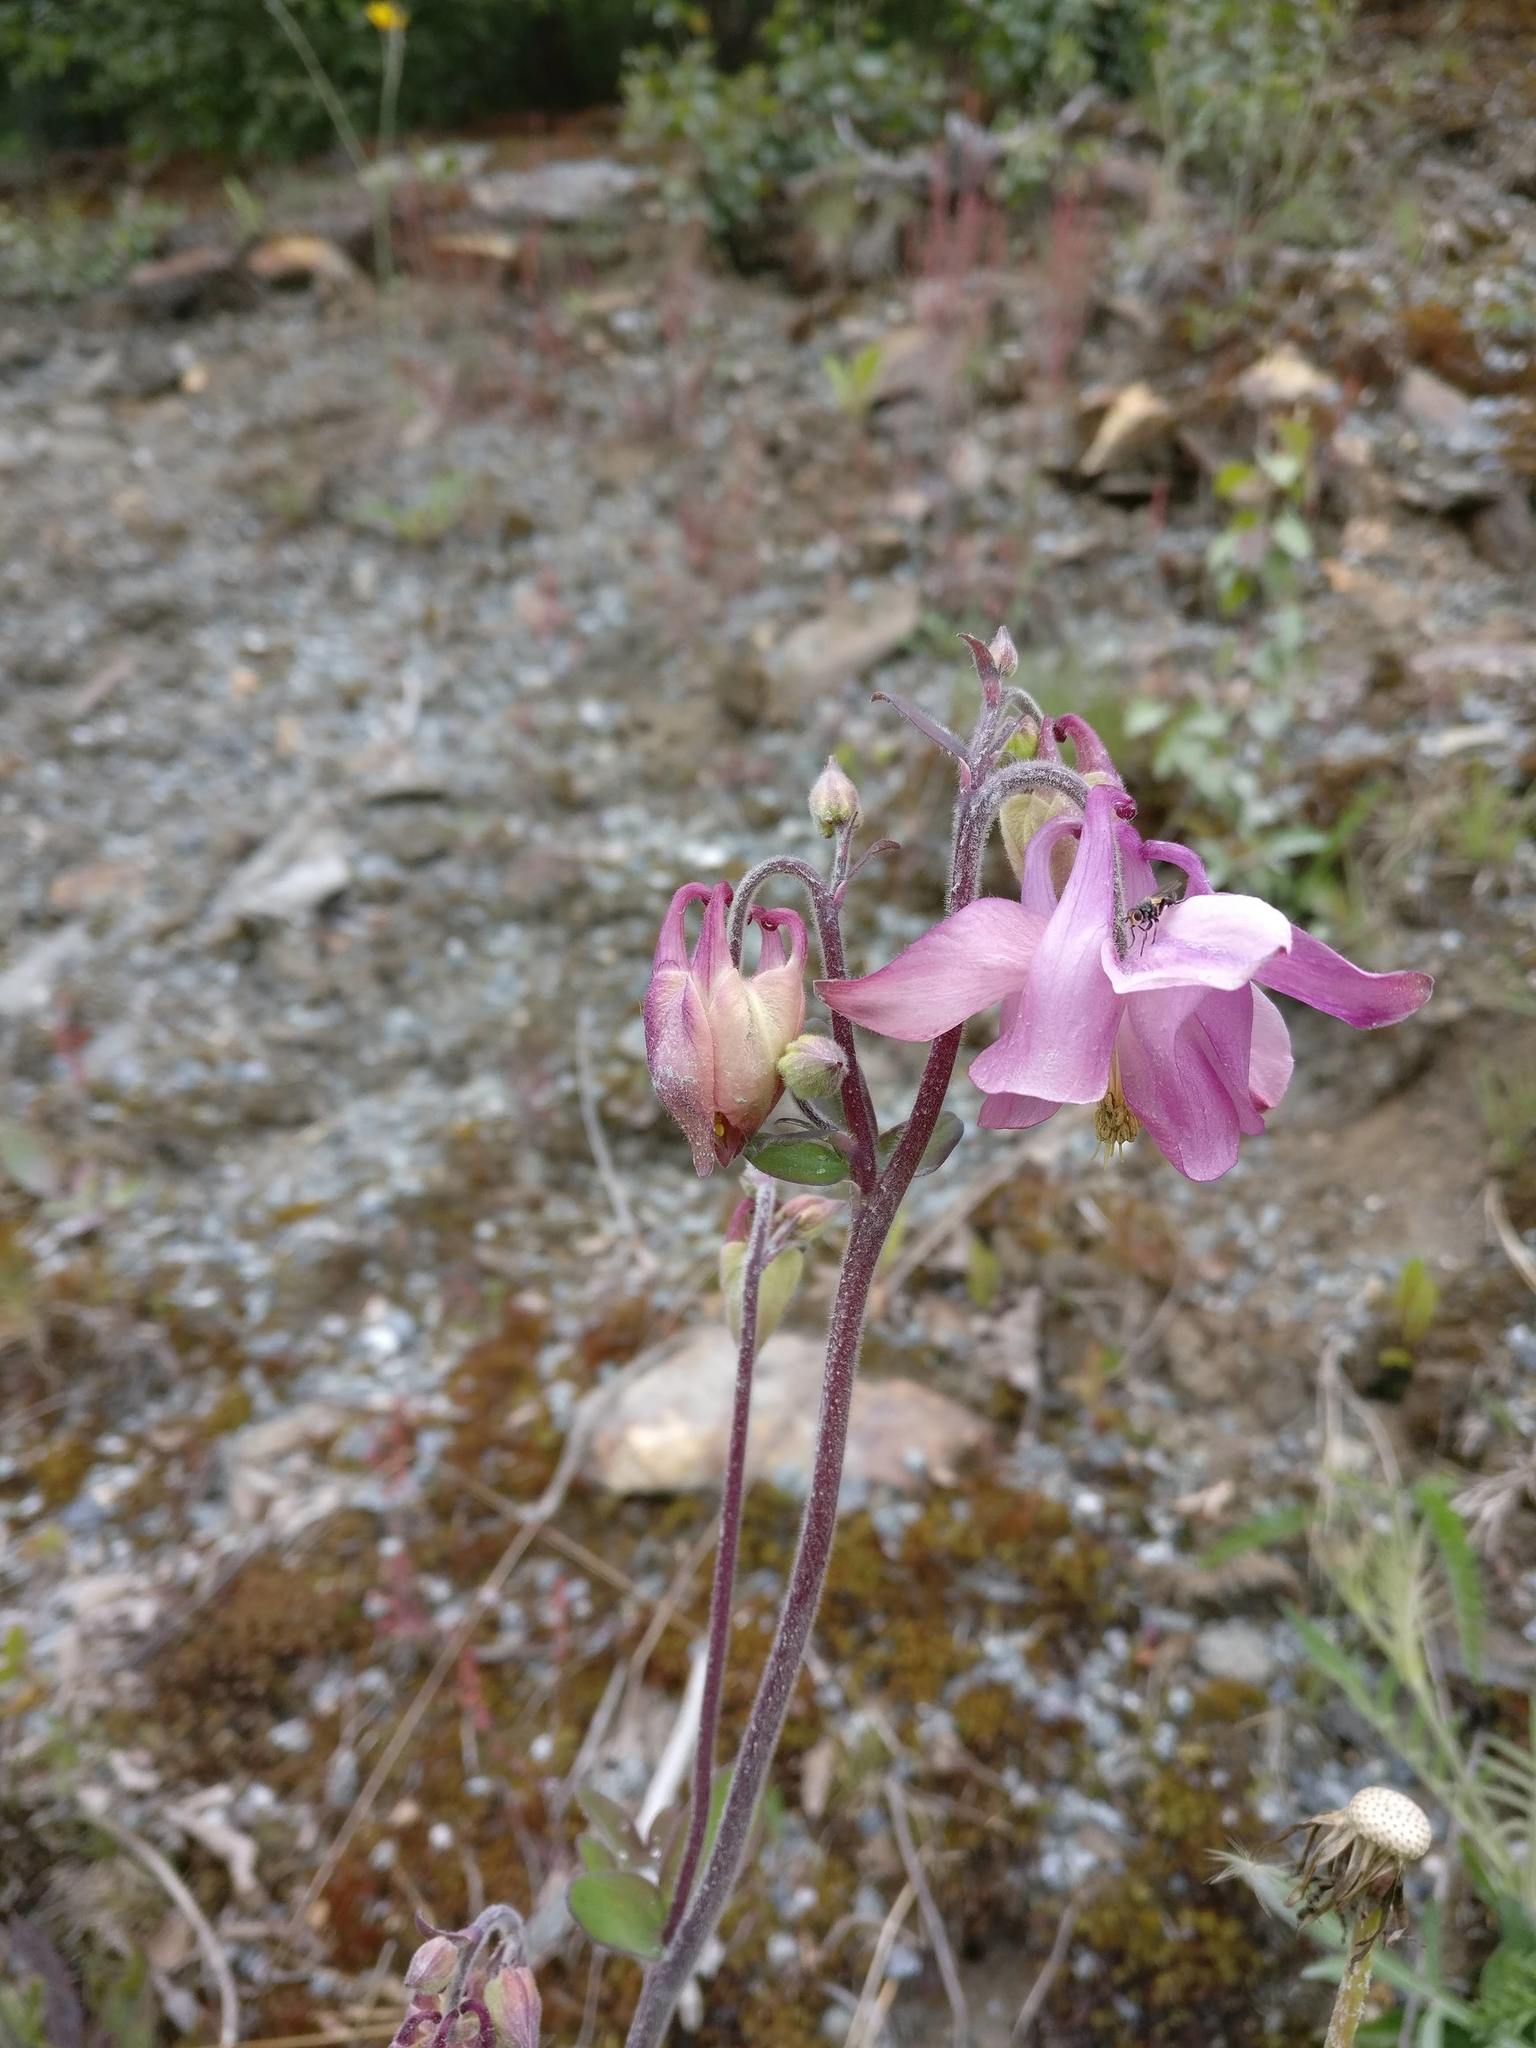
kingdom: Plantae
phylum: Tracheophyta
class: Magnoliopsida
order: Ranunculales
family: Ranunculaceae
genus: Aquilegia
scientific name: Aquilegia vulgaris
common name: Columbine
